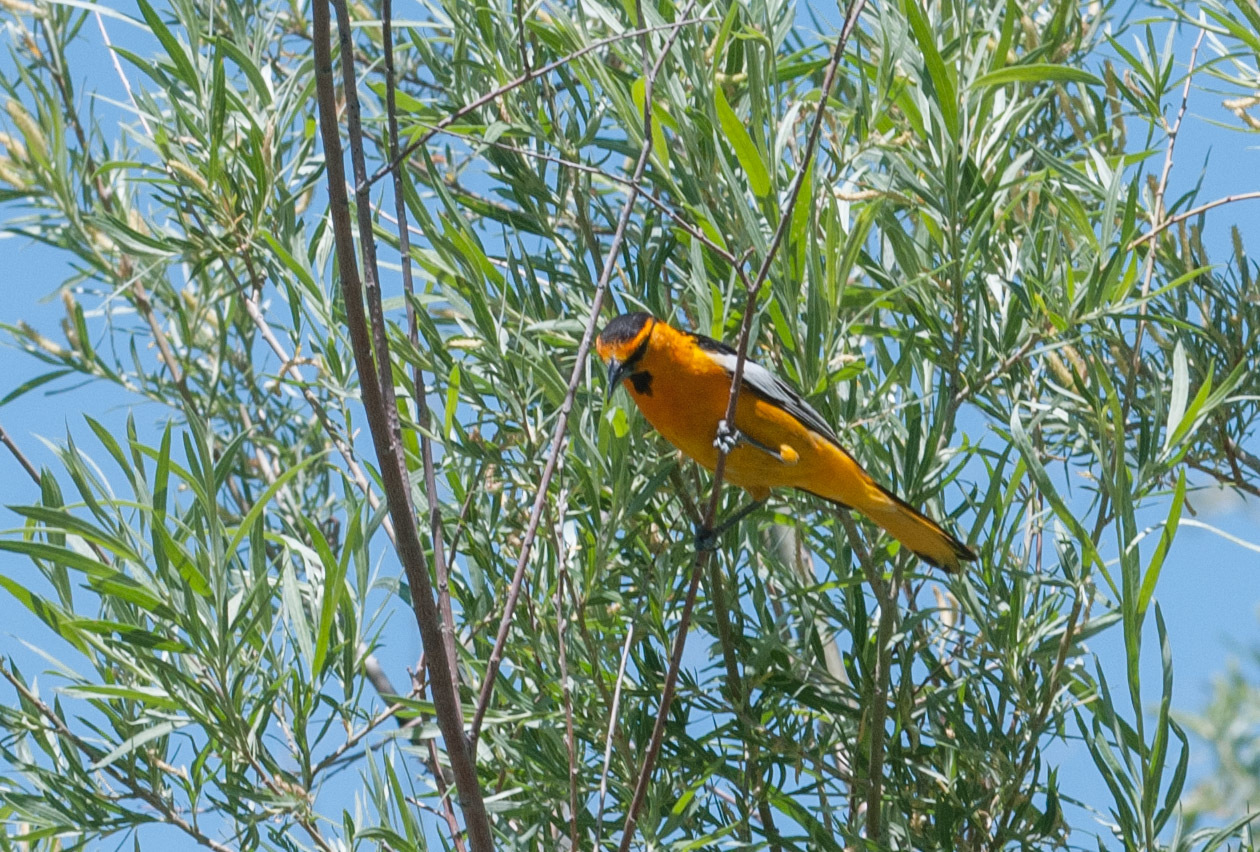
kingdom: Animalia
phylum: Chordata
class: Aves
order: Passeriformes
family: Icteridae
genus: Icterus
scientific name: Icterus bullockii
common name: Bullock's oriole
